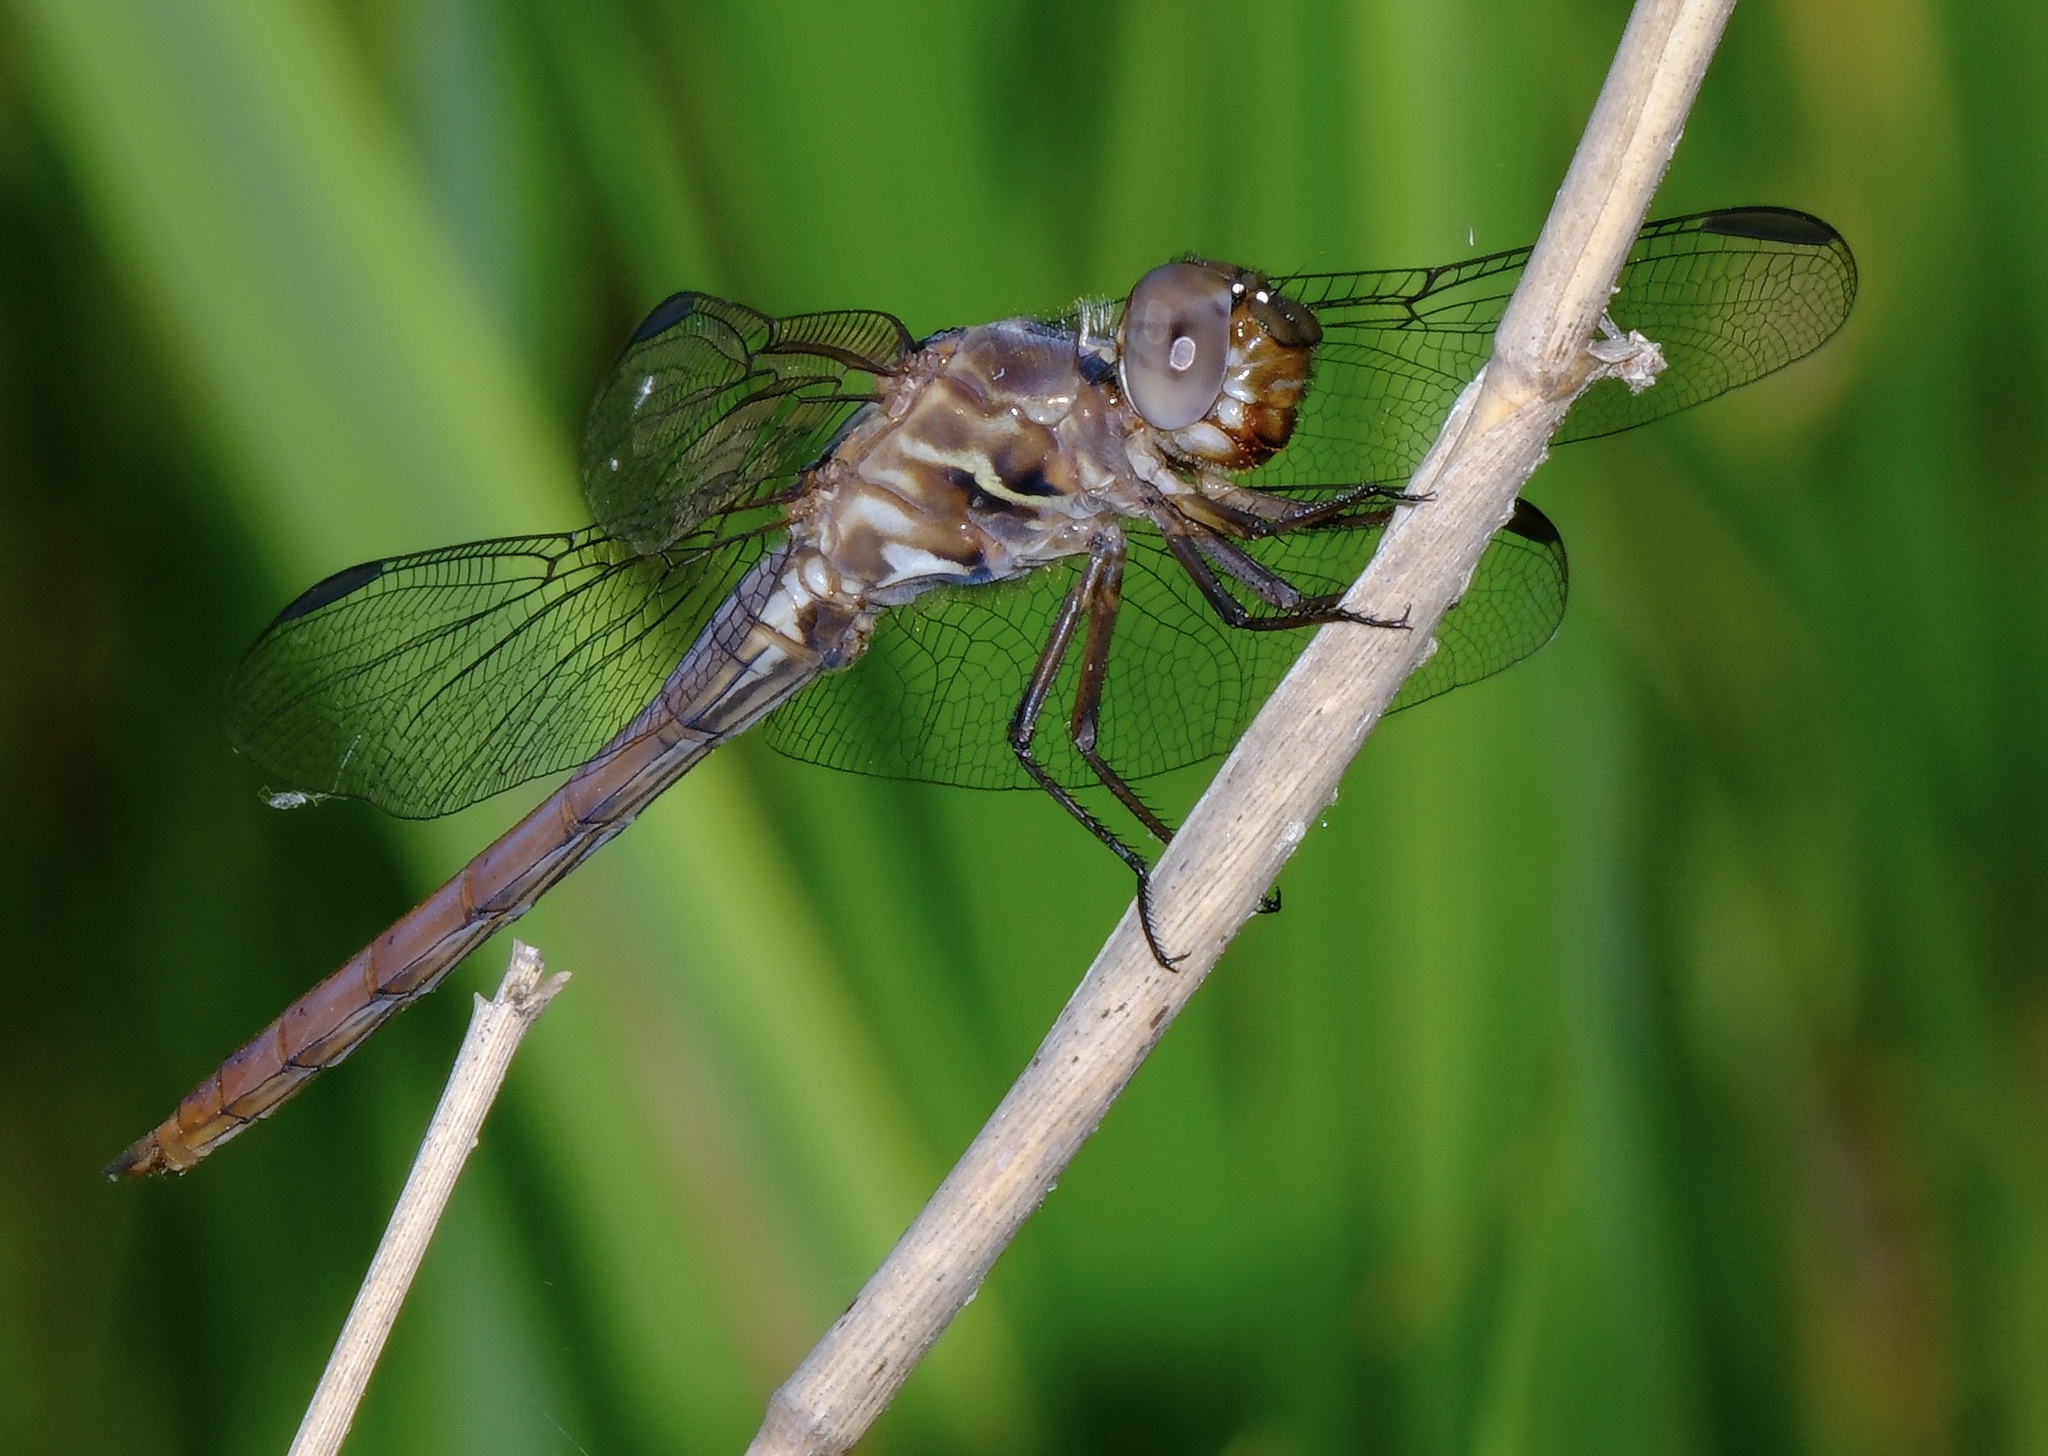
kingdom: Animalia
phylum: Arthropoda
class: Insecta
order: Odonata
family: Libellulidae
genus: Orthemis
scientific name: Orthemis ferruginea
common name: Roseate skimmer
